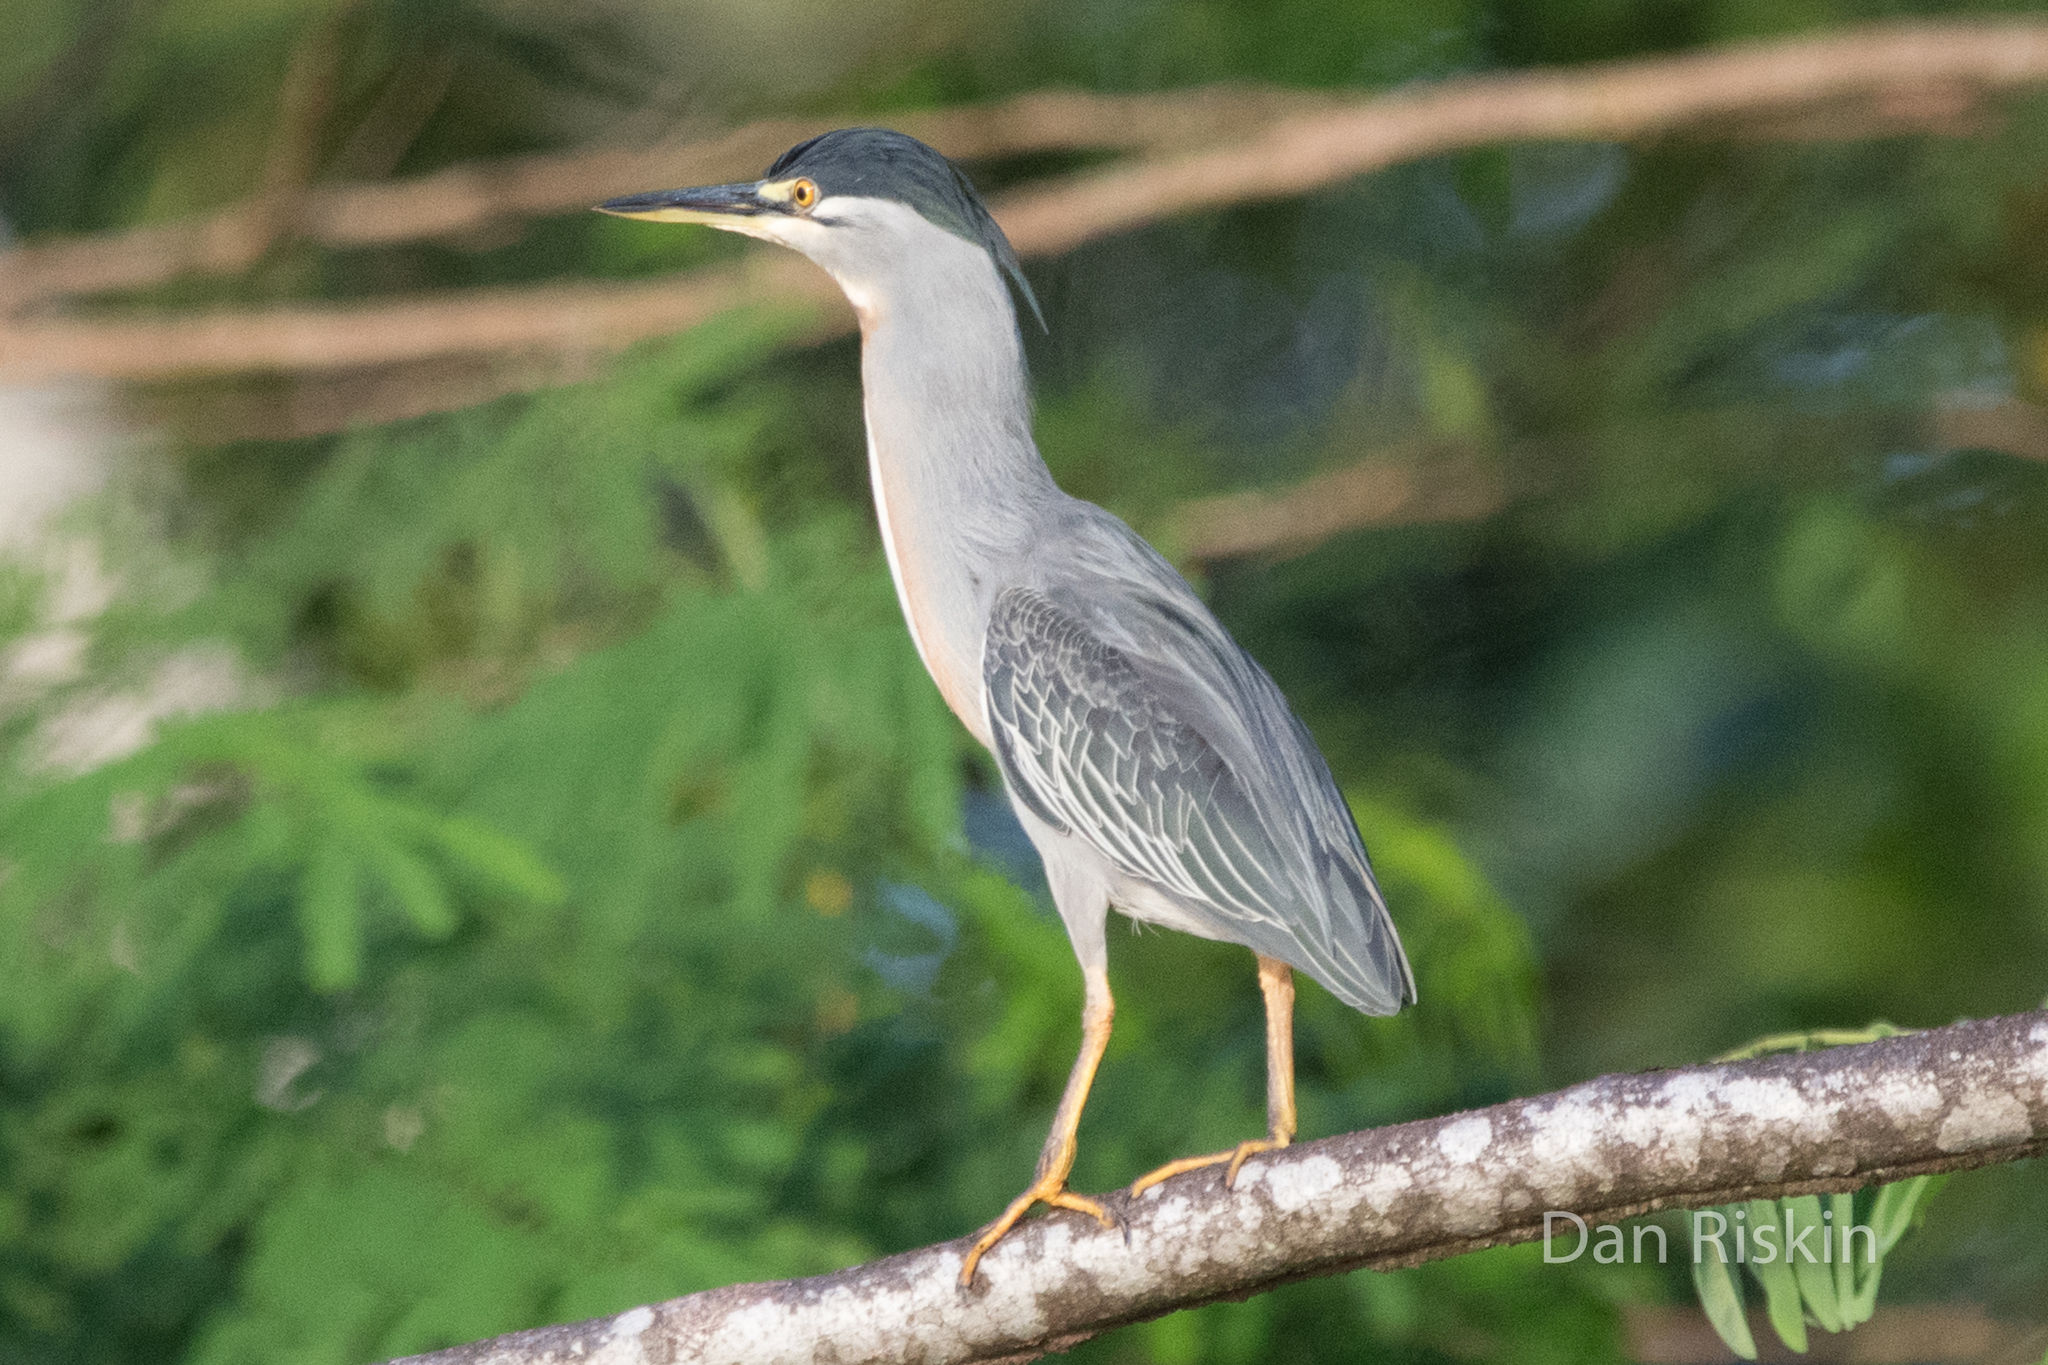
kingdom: Animalia
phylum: Chordata
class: Aves
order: Pelecaniformes
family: Ardeidae
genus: Butorides
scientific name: Butorides striata
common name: Striated heron
